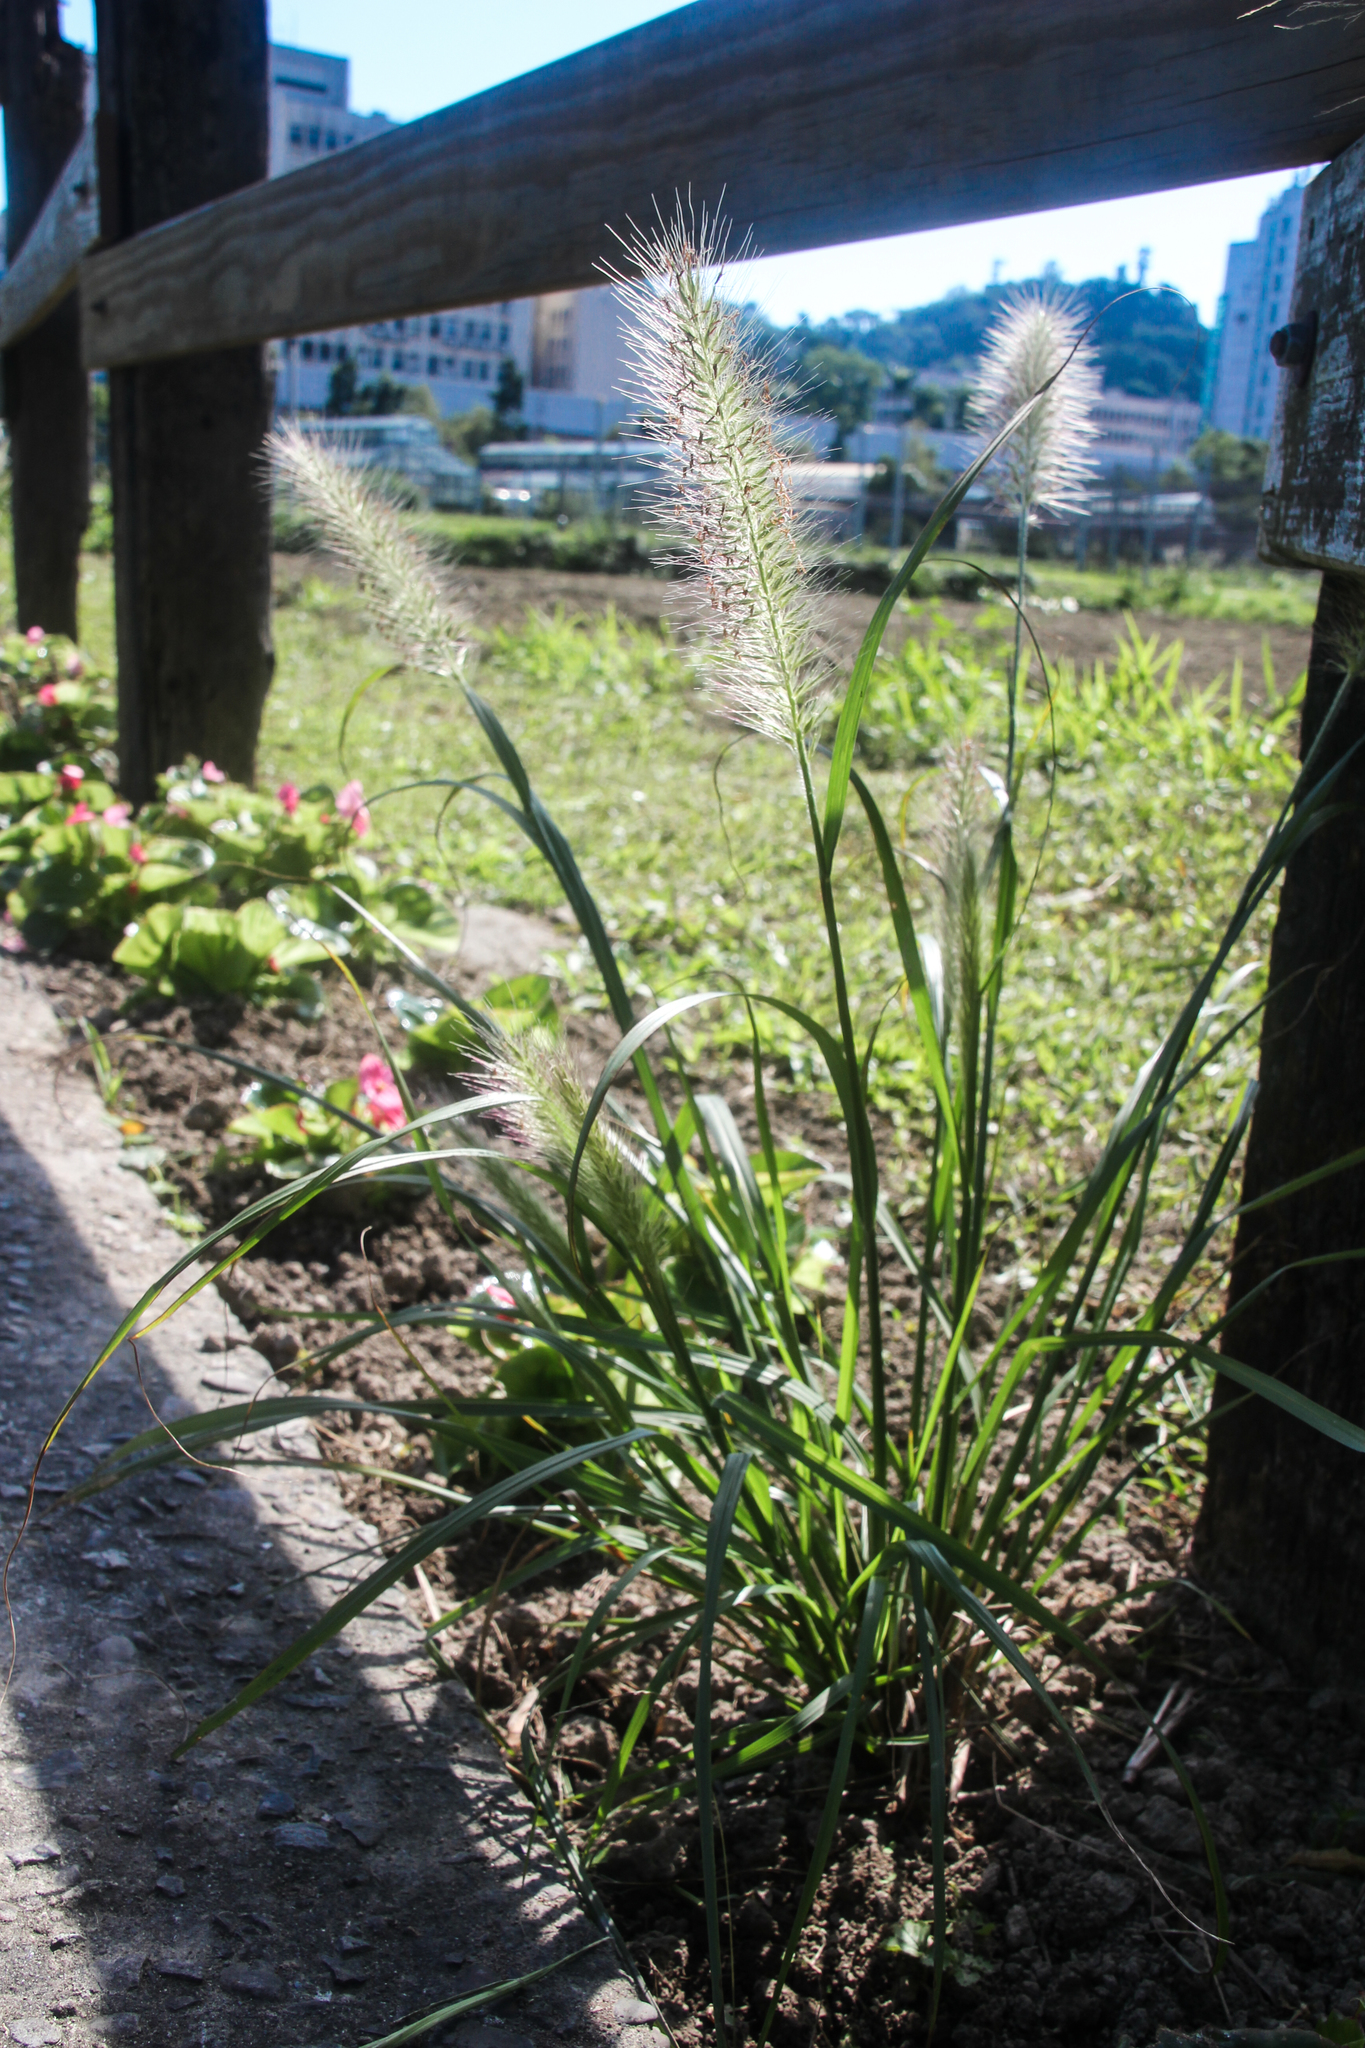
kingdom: Plantae
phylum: Tracheophyta
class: Liliopsida
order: Poales
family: Poaceae
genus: Cenchrus
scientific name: Cenchrus alopecuroides
